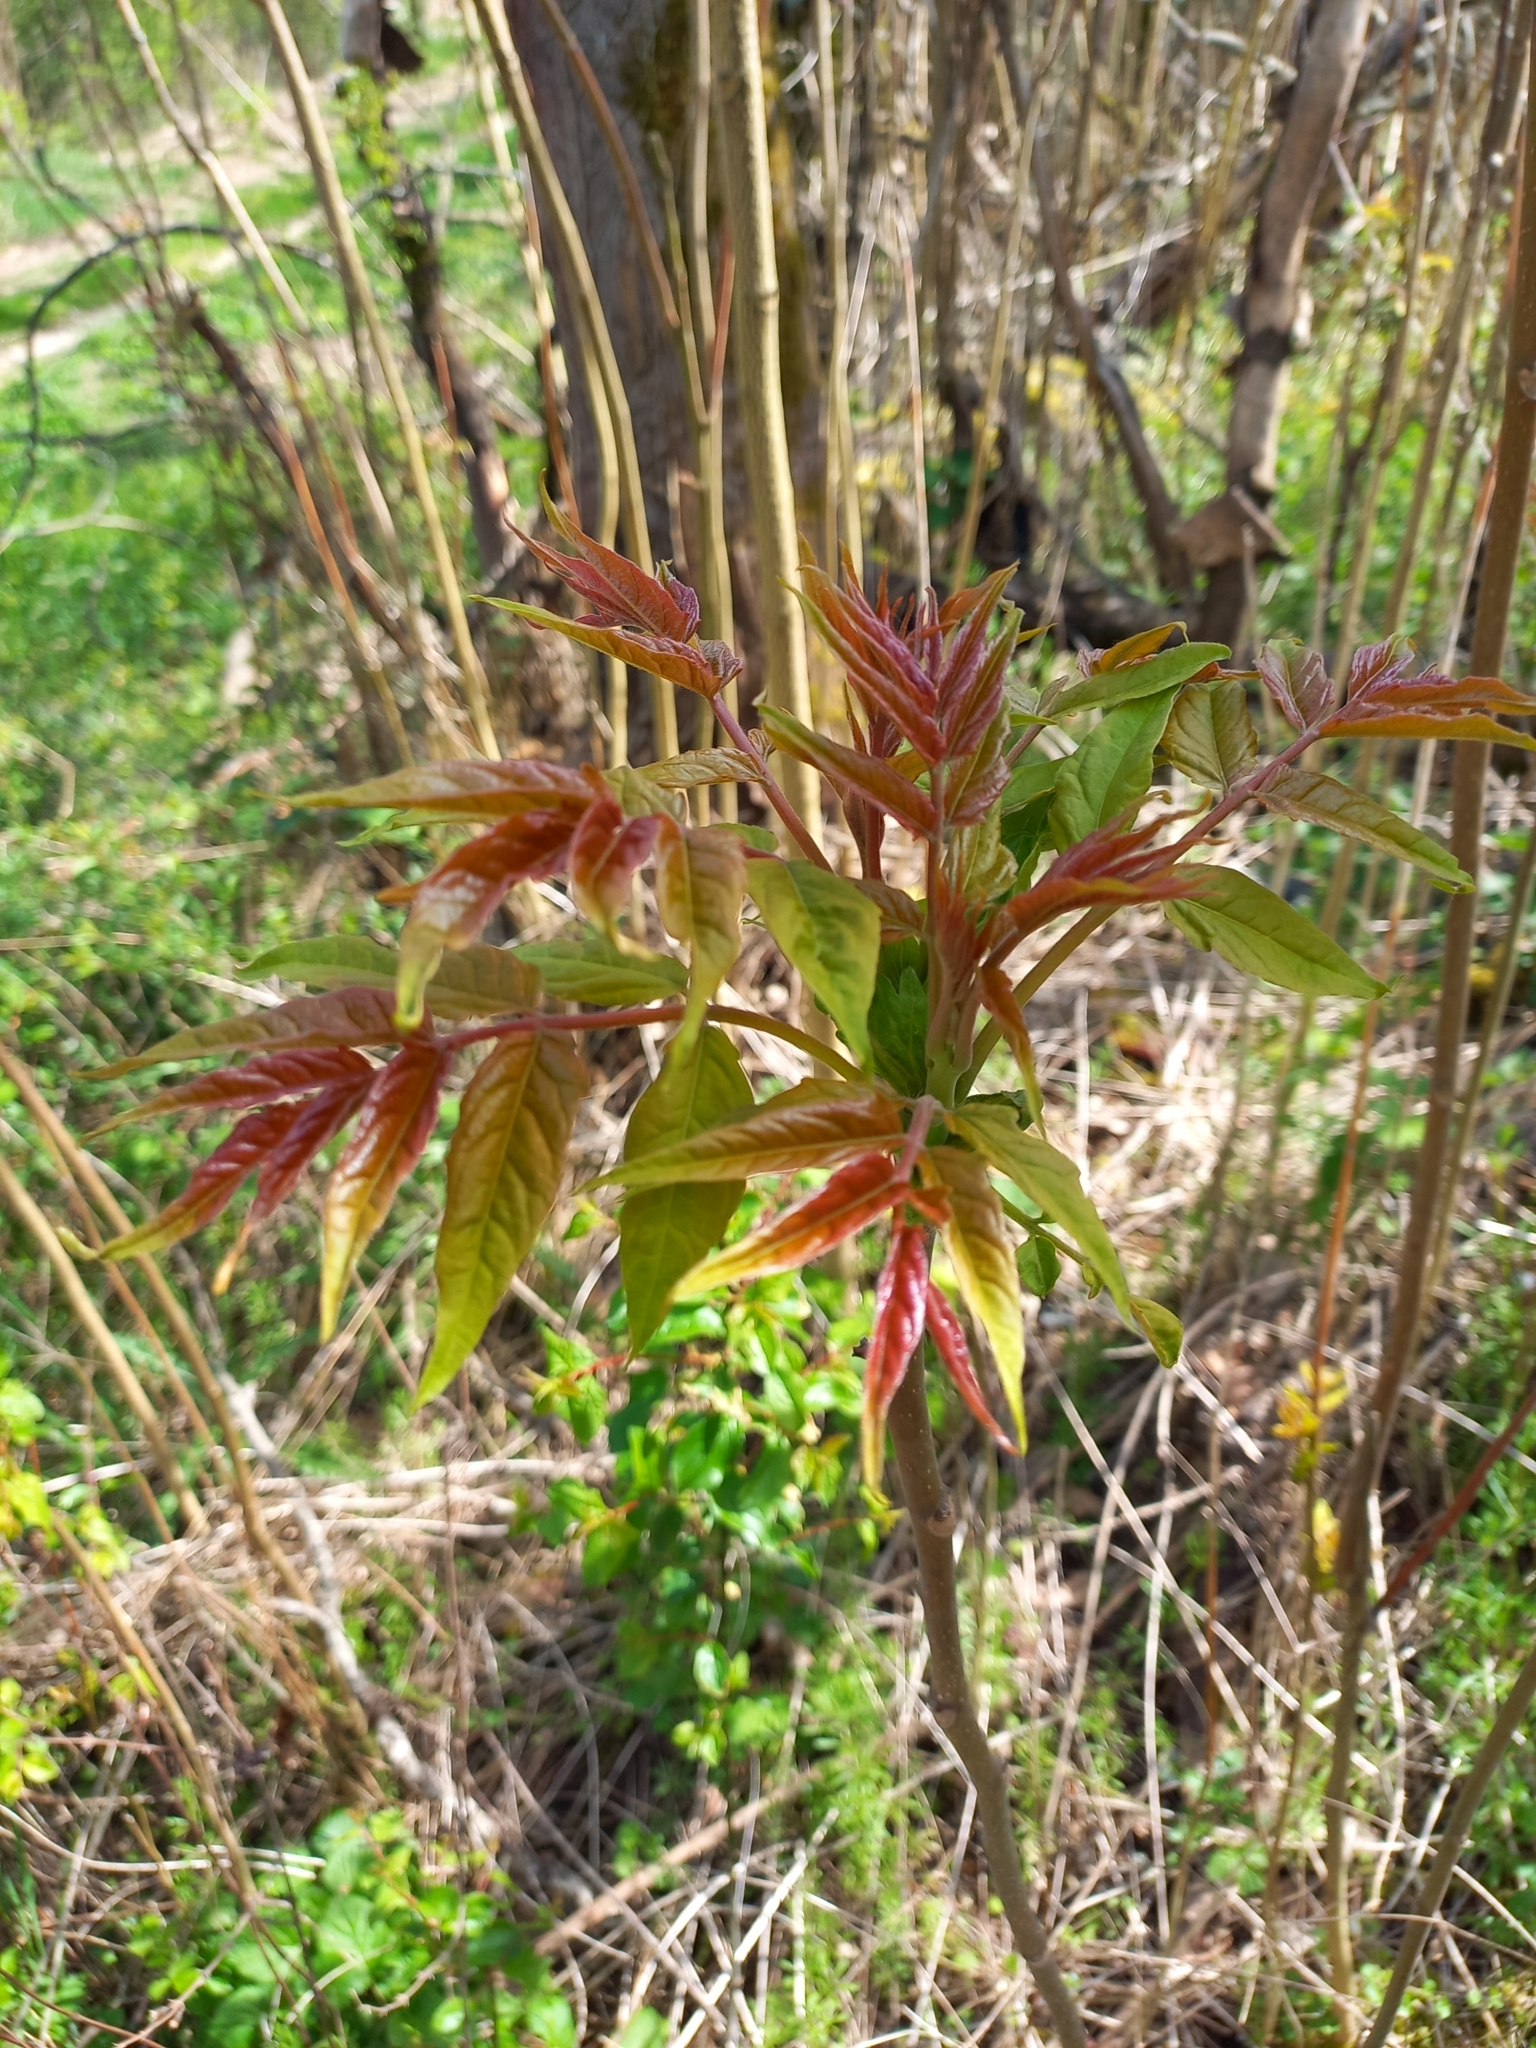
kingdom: Plantae
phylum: Tracheophyta
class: Magnoliopsida
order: Sapindales
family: Simaroubaceae
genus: Ailanthus
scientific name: Ailanthus altissima
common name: Tree-of-heaven
